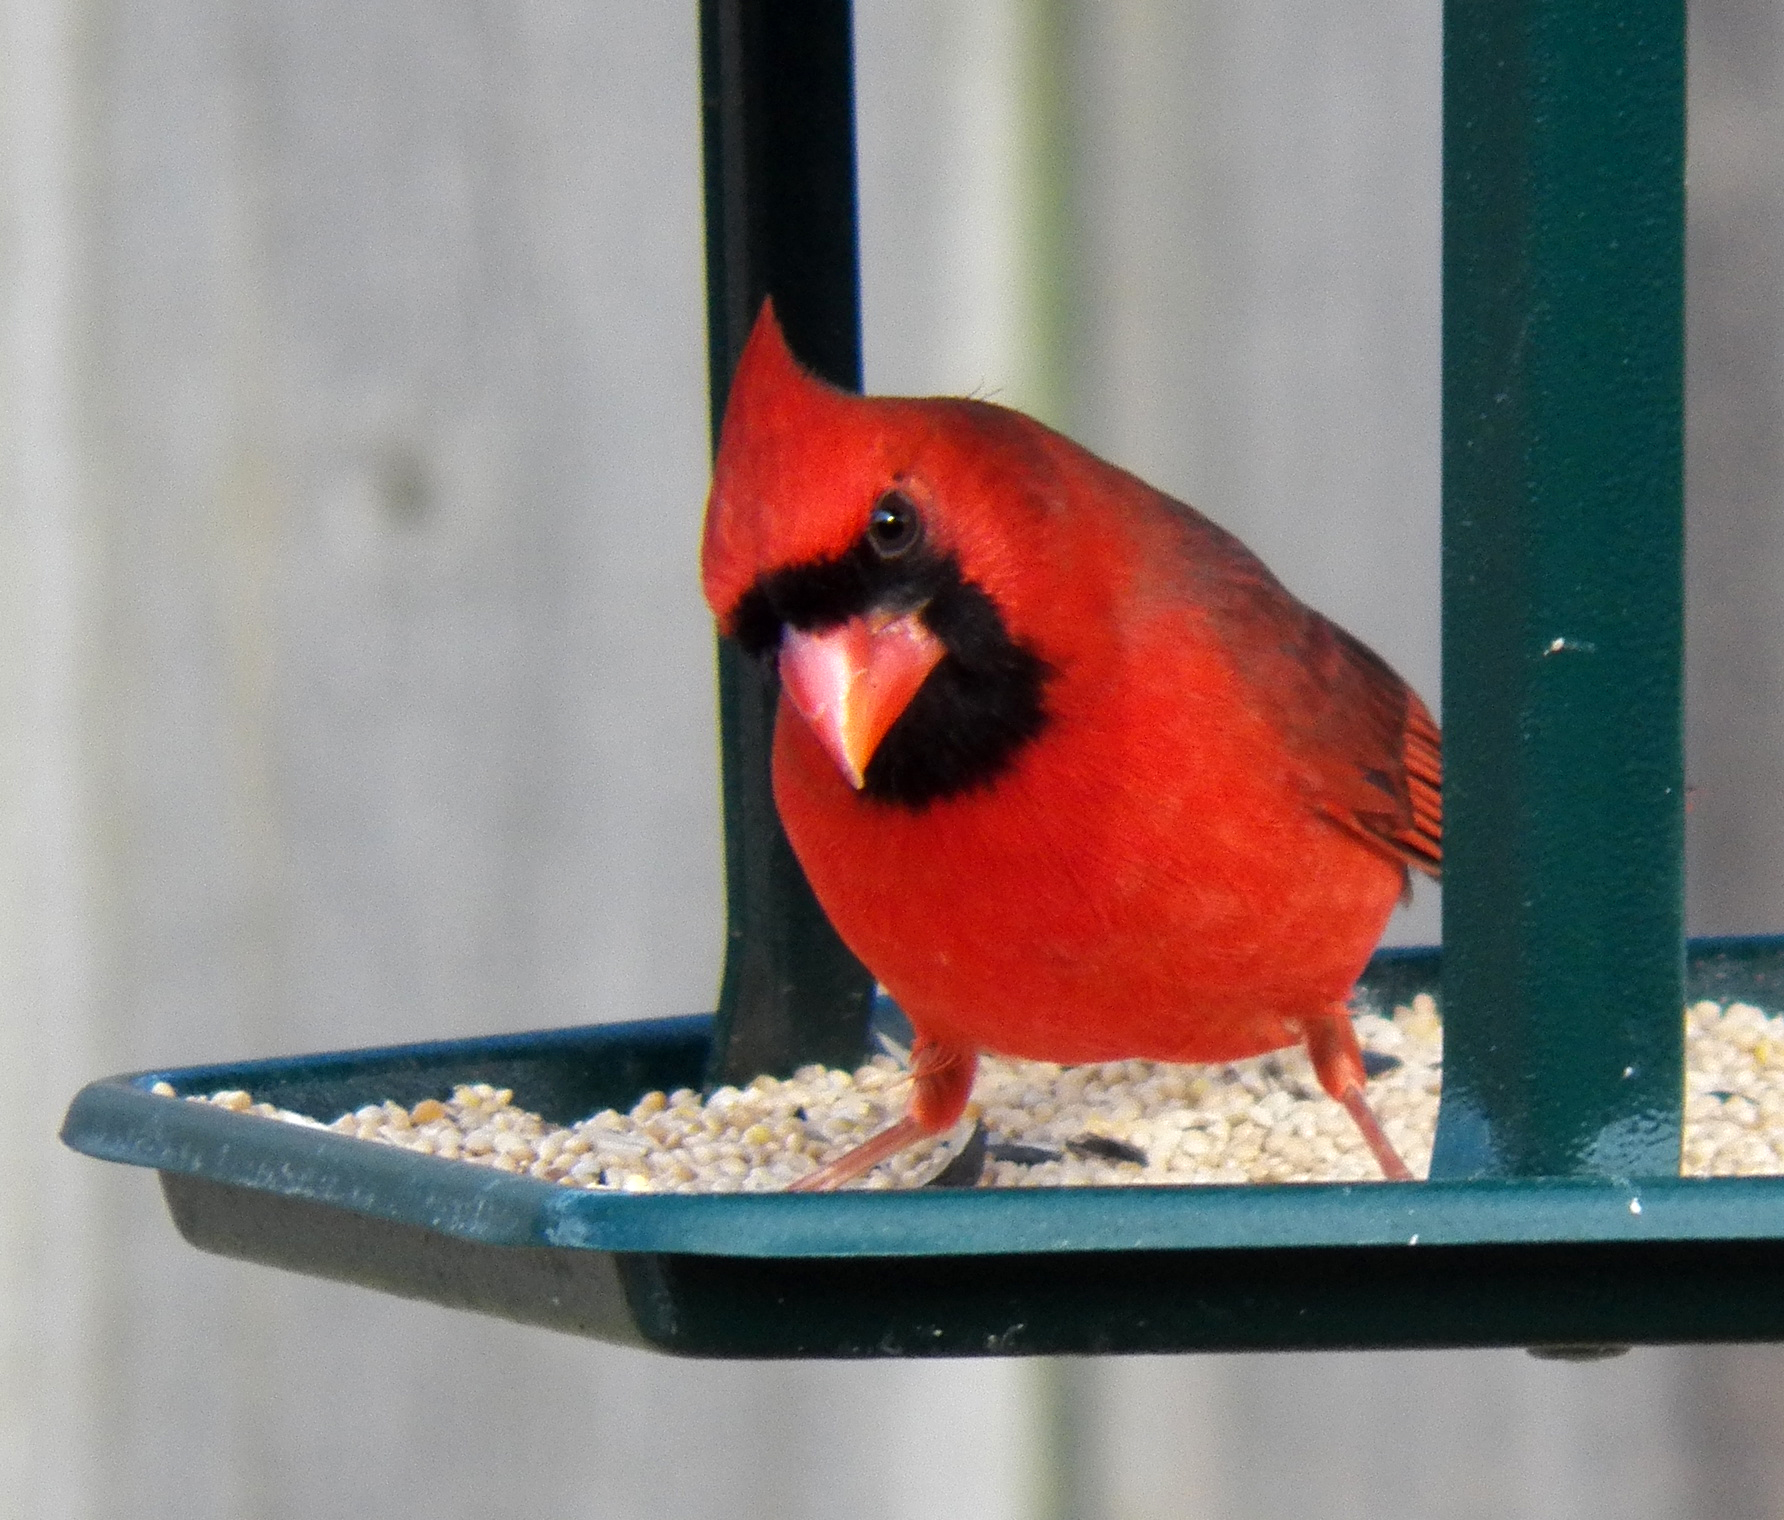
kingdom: Animalia
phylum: Chordata
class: Aves
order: Passeriformes
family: Cardinalidae
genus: Cardinalis
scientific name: Cardinalis cardinalis
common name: Northern cardinal
